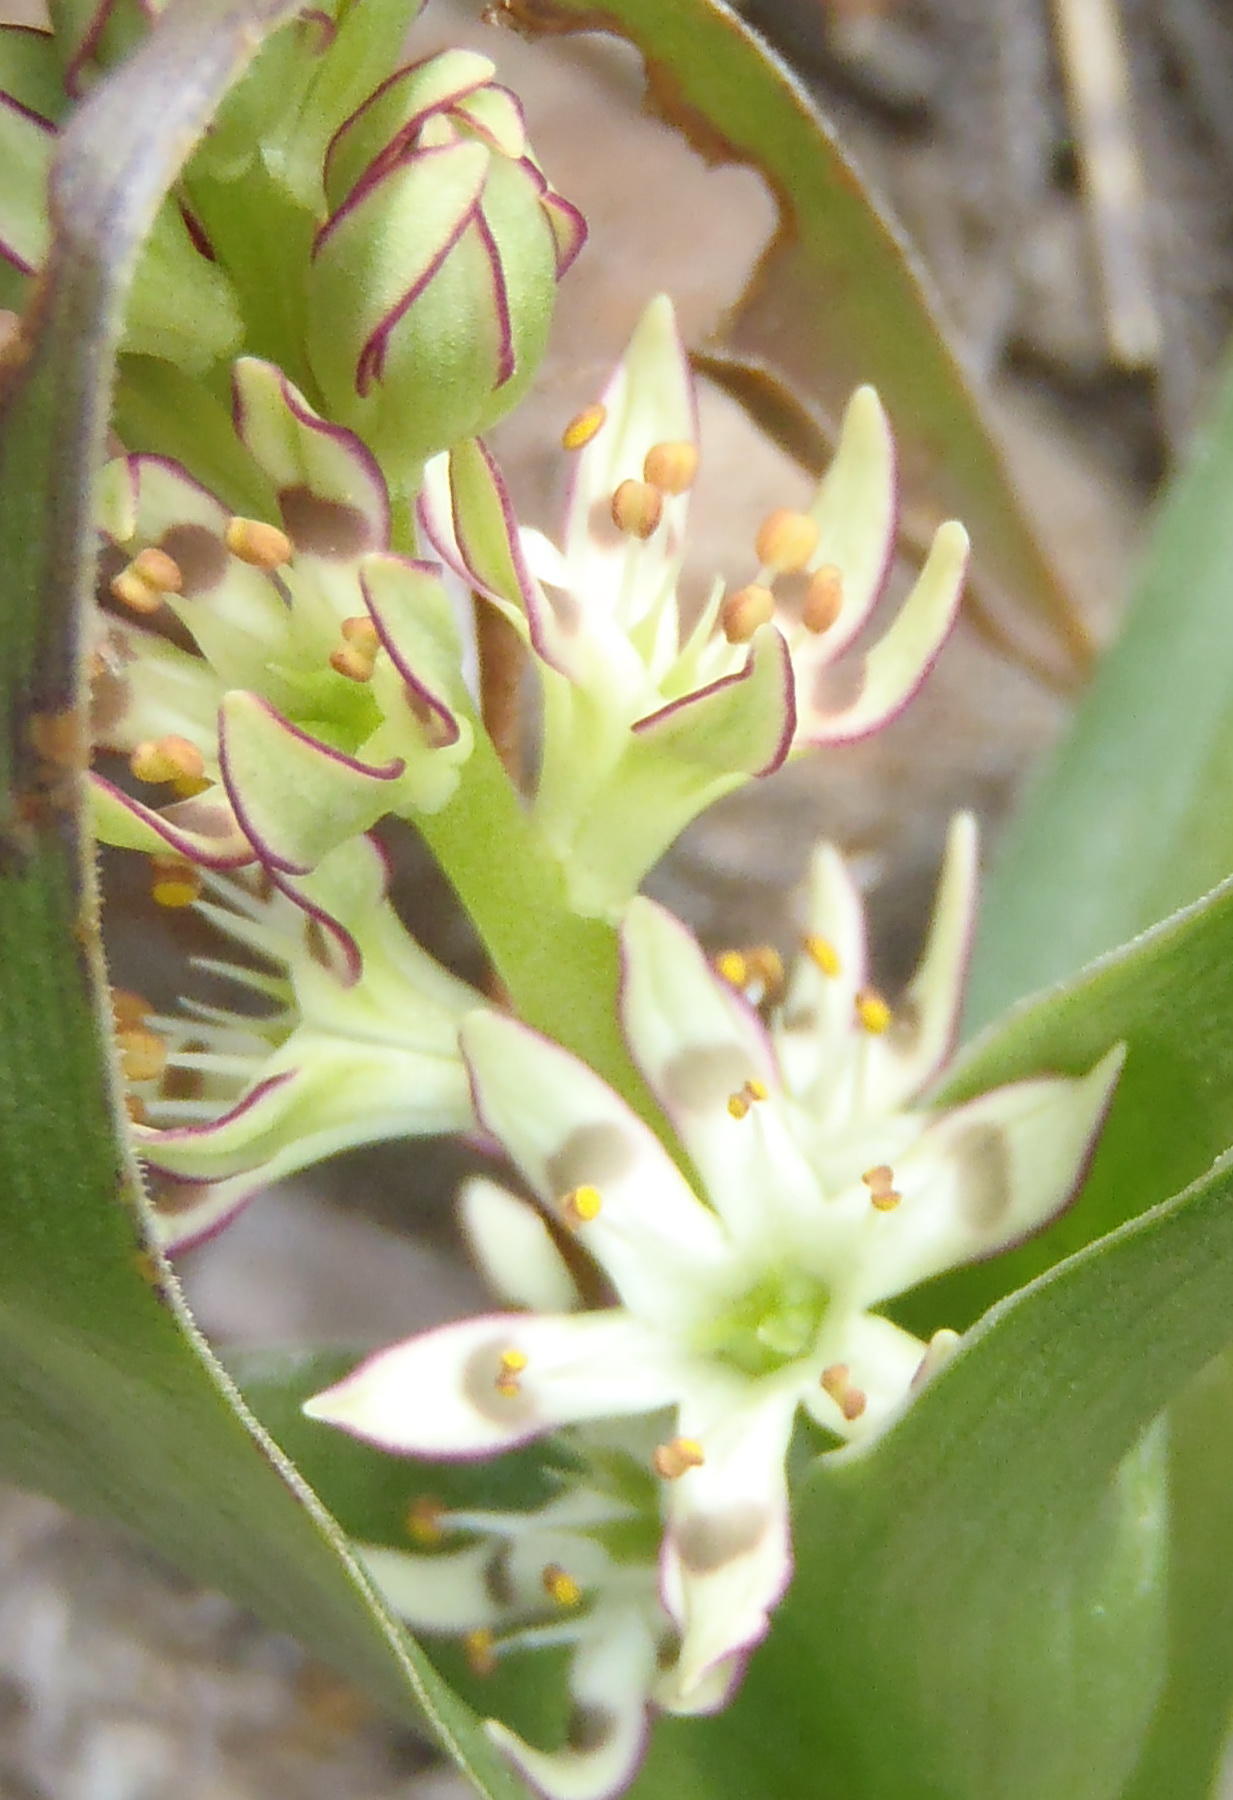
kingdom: Plantae
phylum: Tracheophyta
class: Liliopsida
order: Liliales
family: Colchicaceae
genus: Wurmbea
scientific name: Wurmbea variabilis
